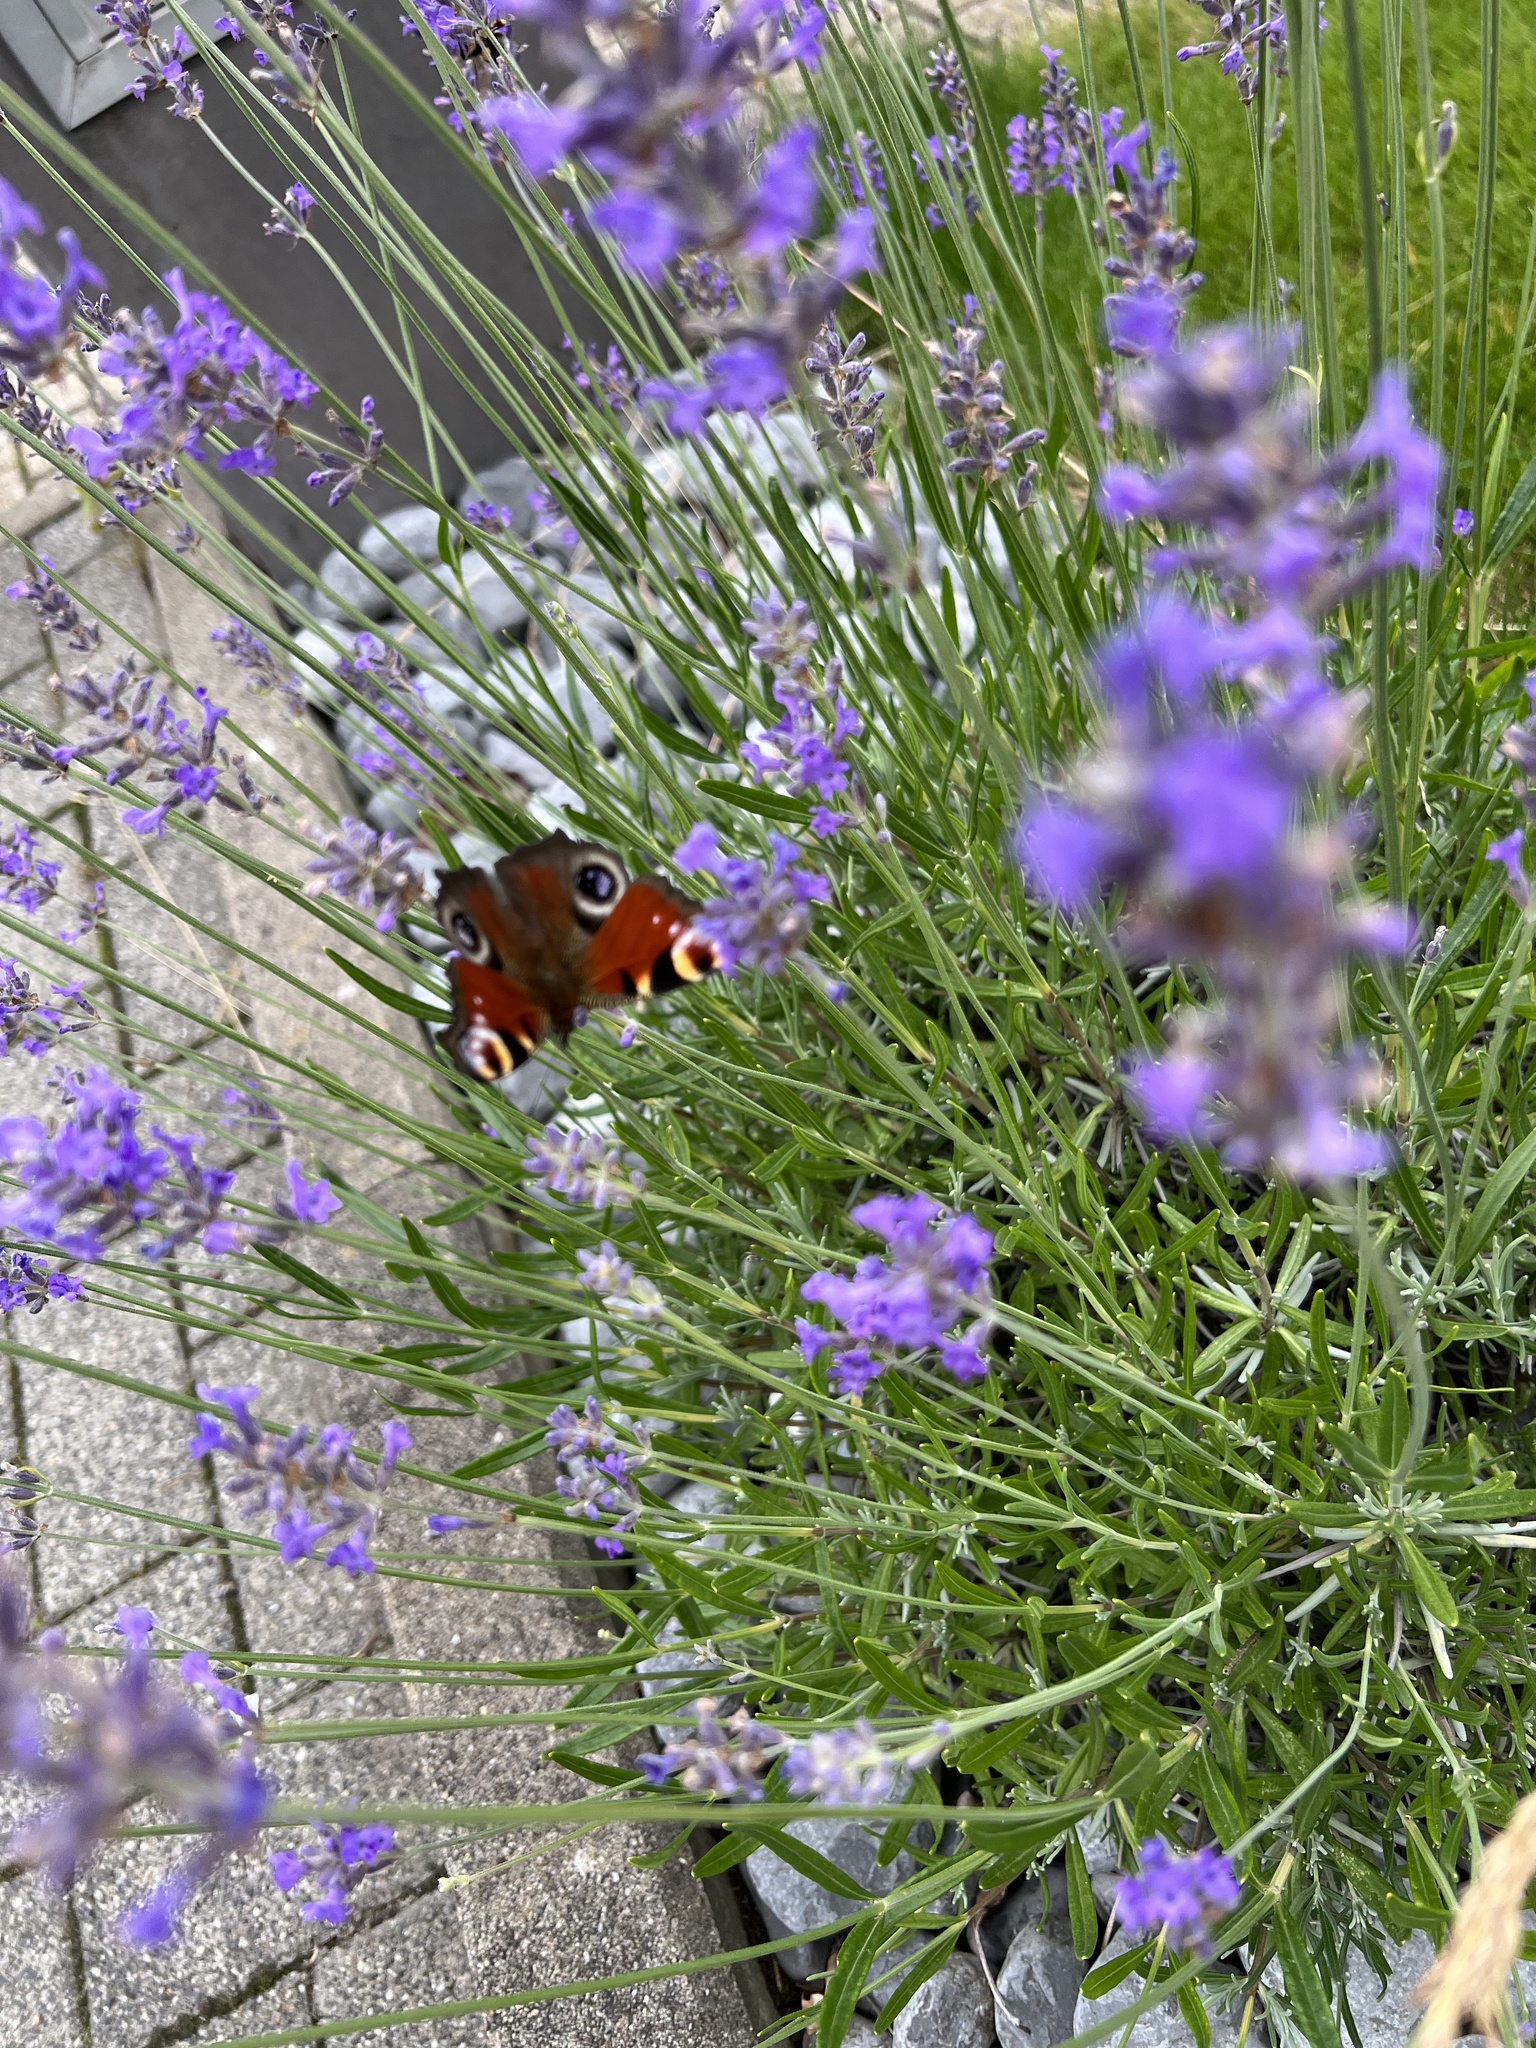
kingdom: Animalia
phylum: Arthropoda
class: Insecta
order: Lepidoptera
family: Nymphalidae
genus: Aglais
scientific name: Aglais io
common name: Peacock
